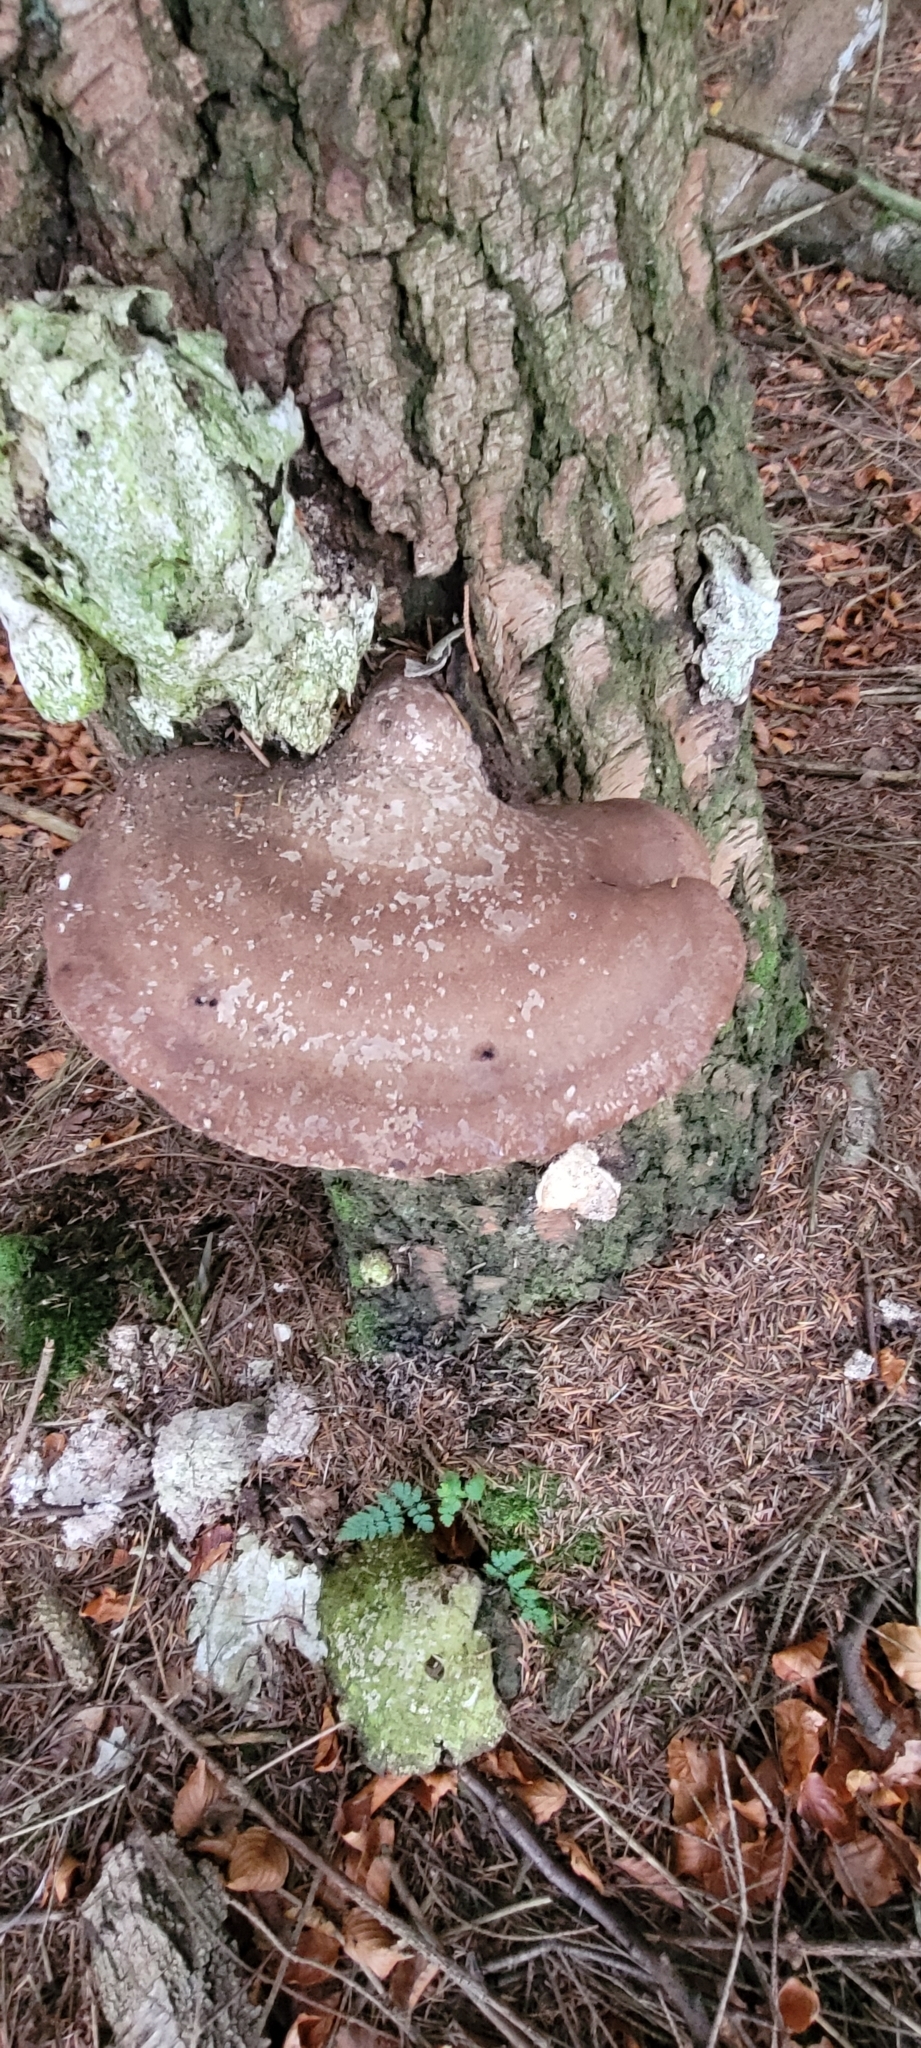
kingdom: Fungi
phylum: Basidiomycota
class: Agaricomycetes
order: Polyporales
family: Fomitopsidaceae
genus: Fomitopsis
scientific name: Fomitopsis betulina
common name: Birch polypore
